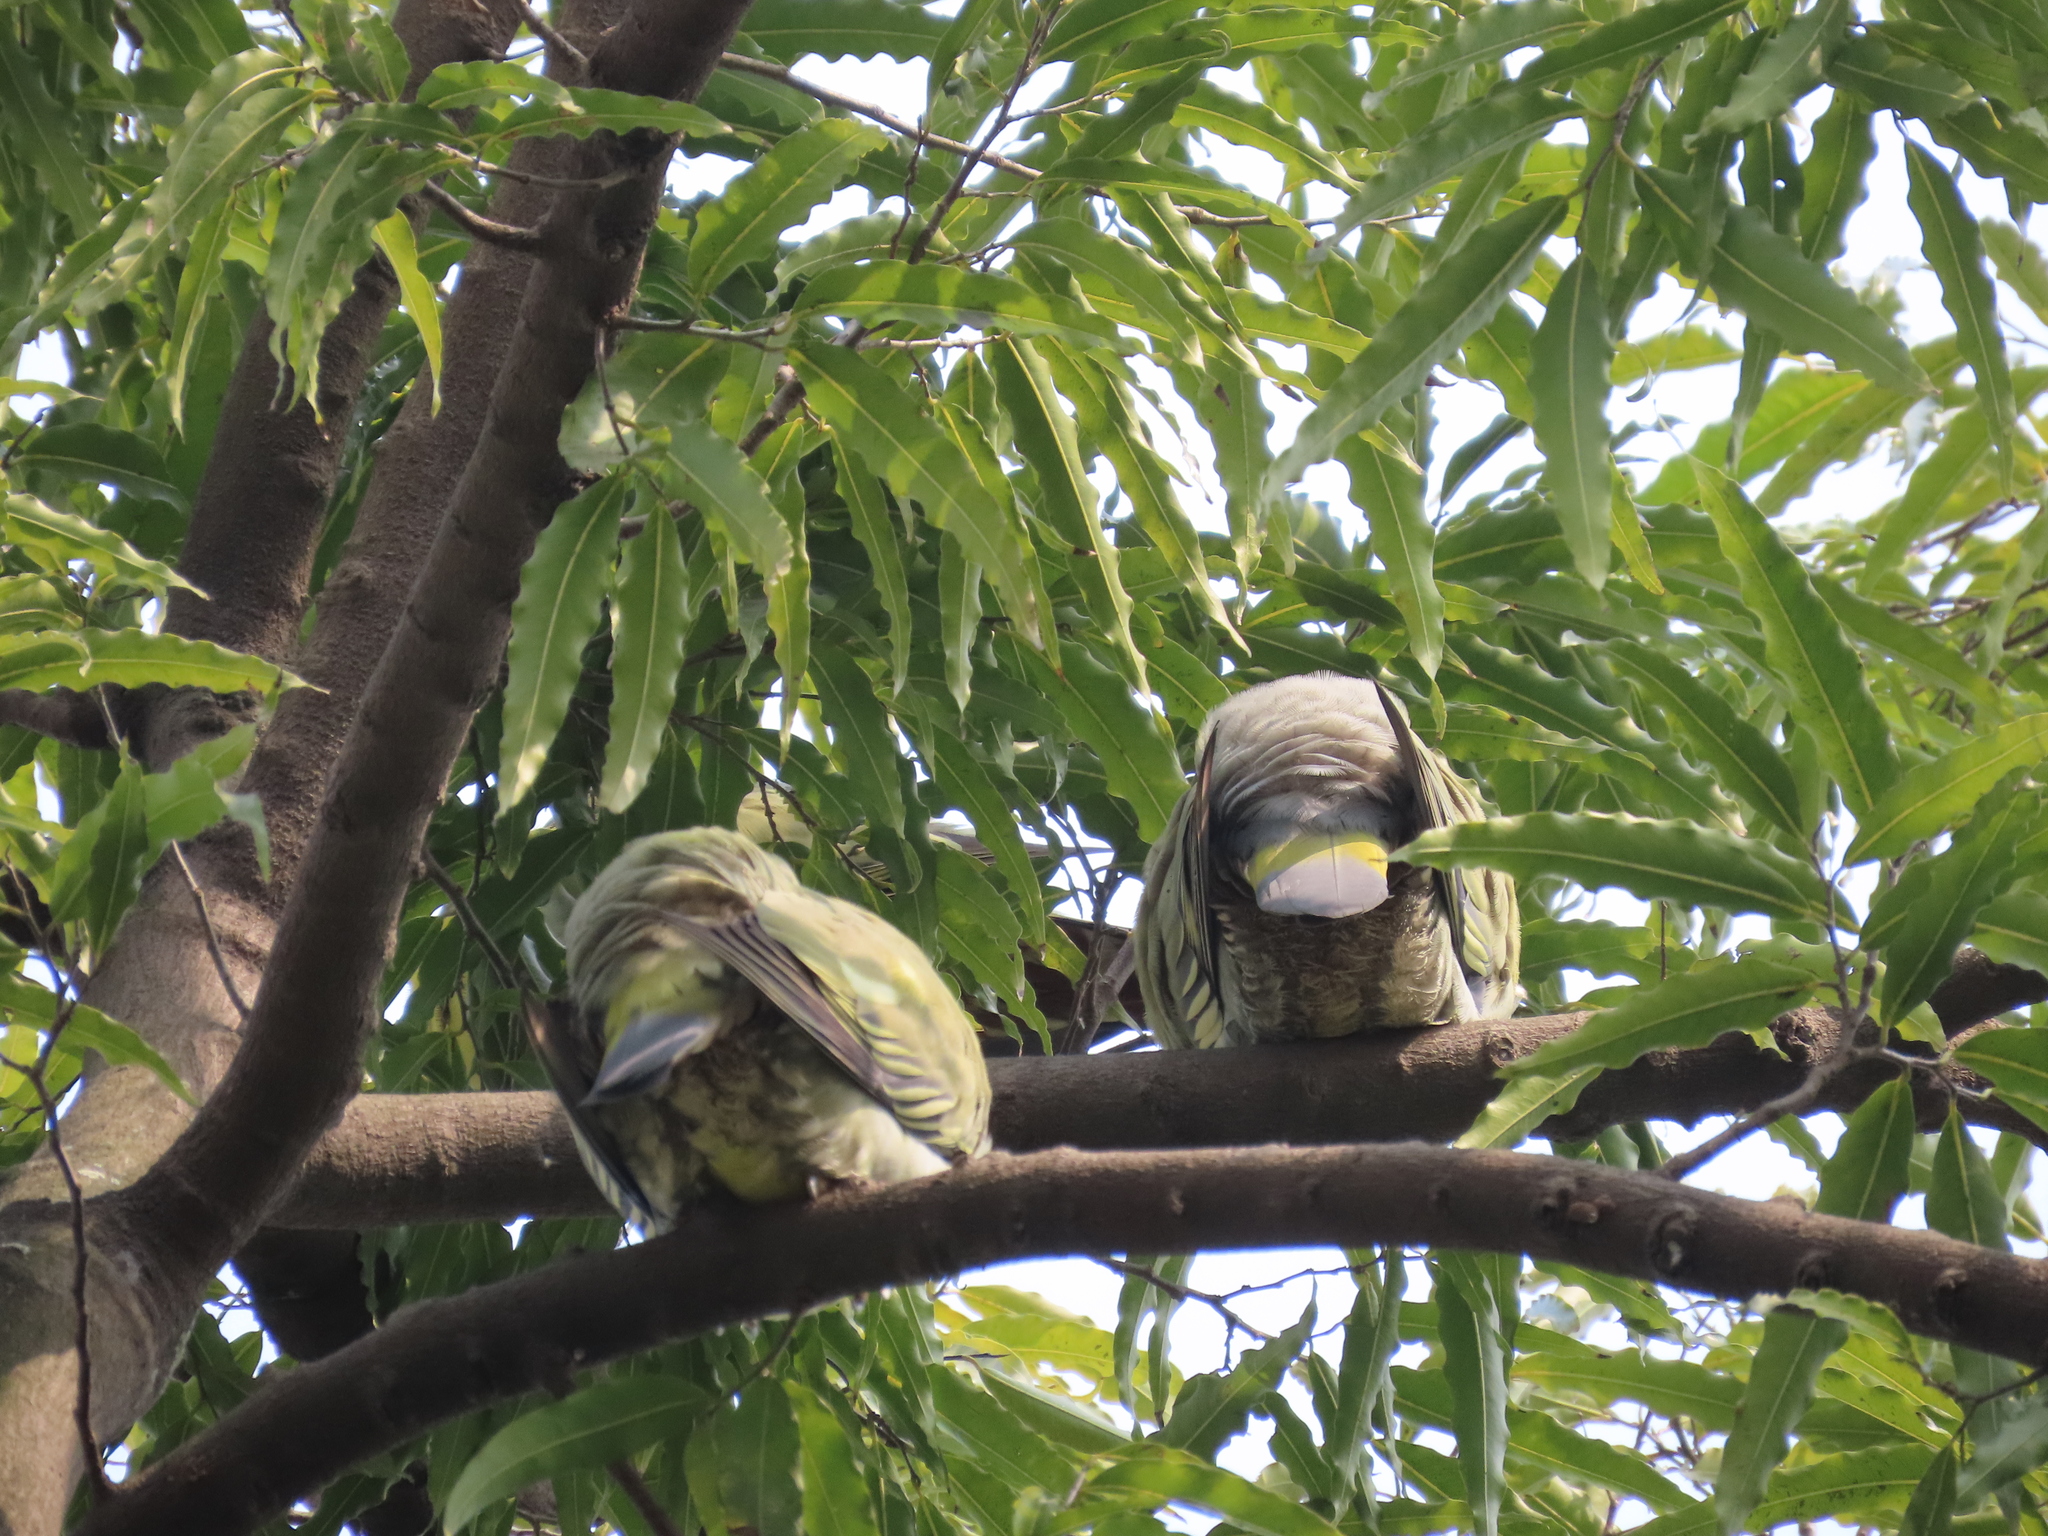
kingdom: Animalia
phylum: Chordata
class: Aves
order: Columbiformes
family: Columbidae
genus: Treron
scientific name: Treron phoenicopterus
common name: Yellow-footed green pigeon
